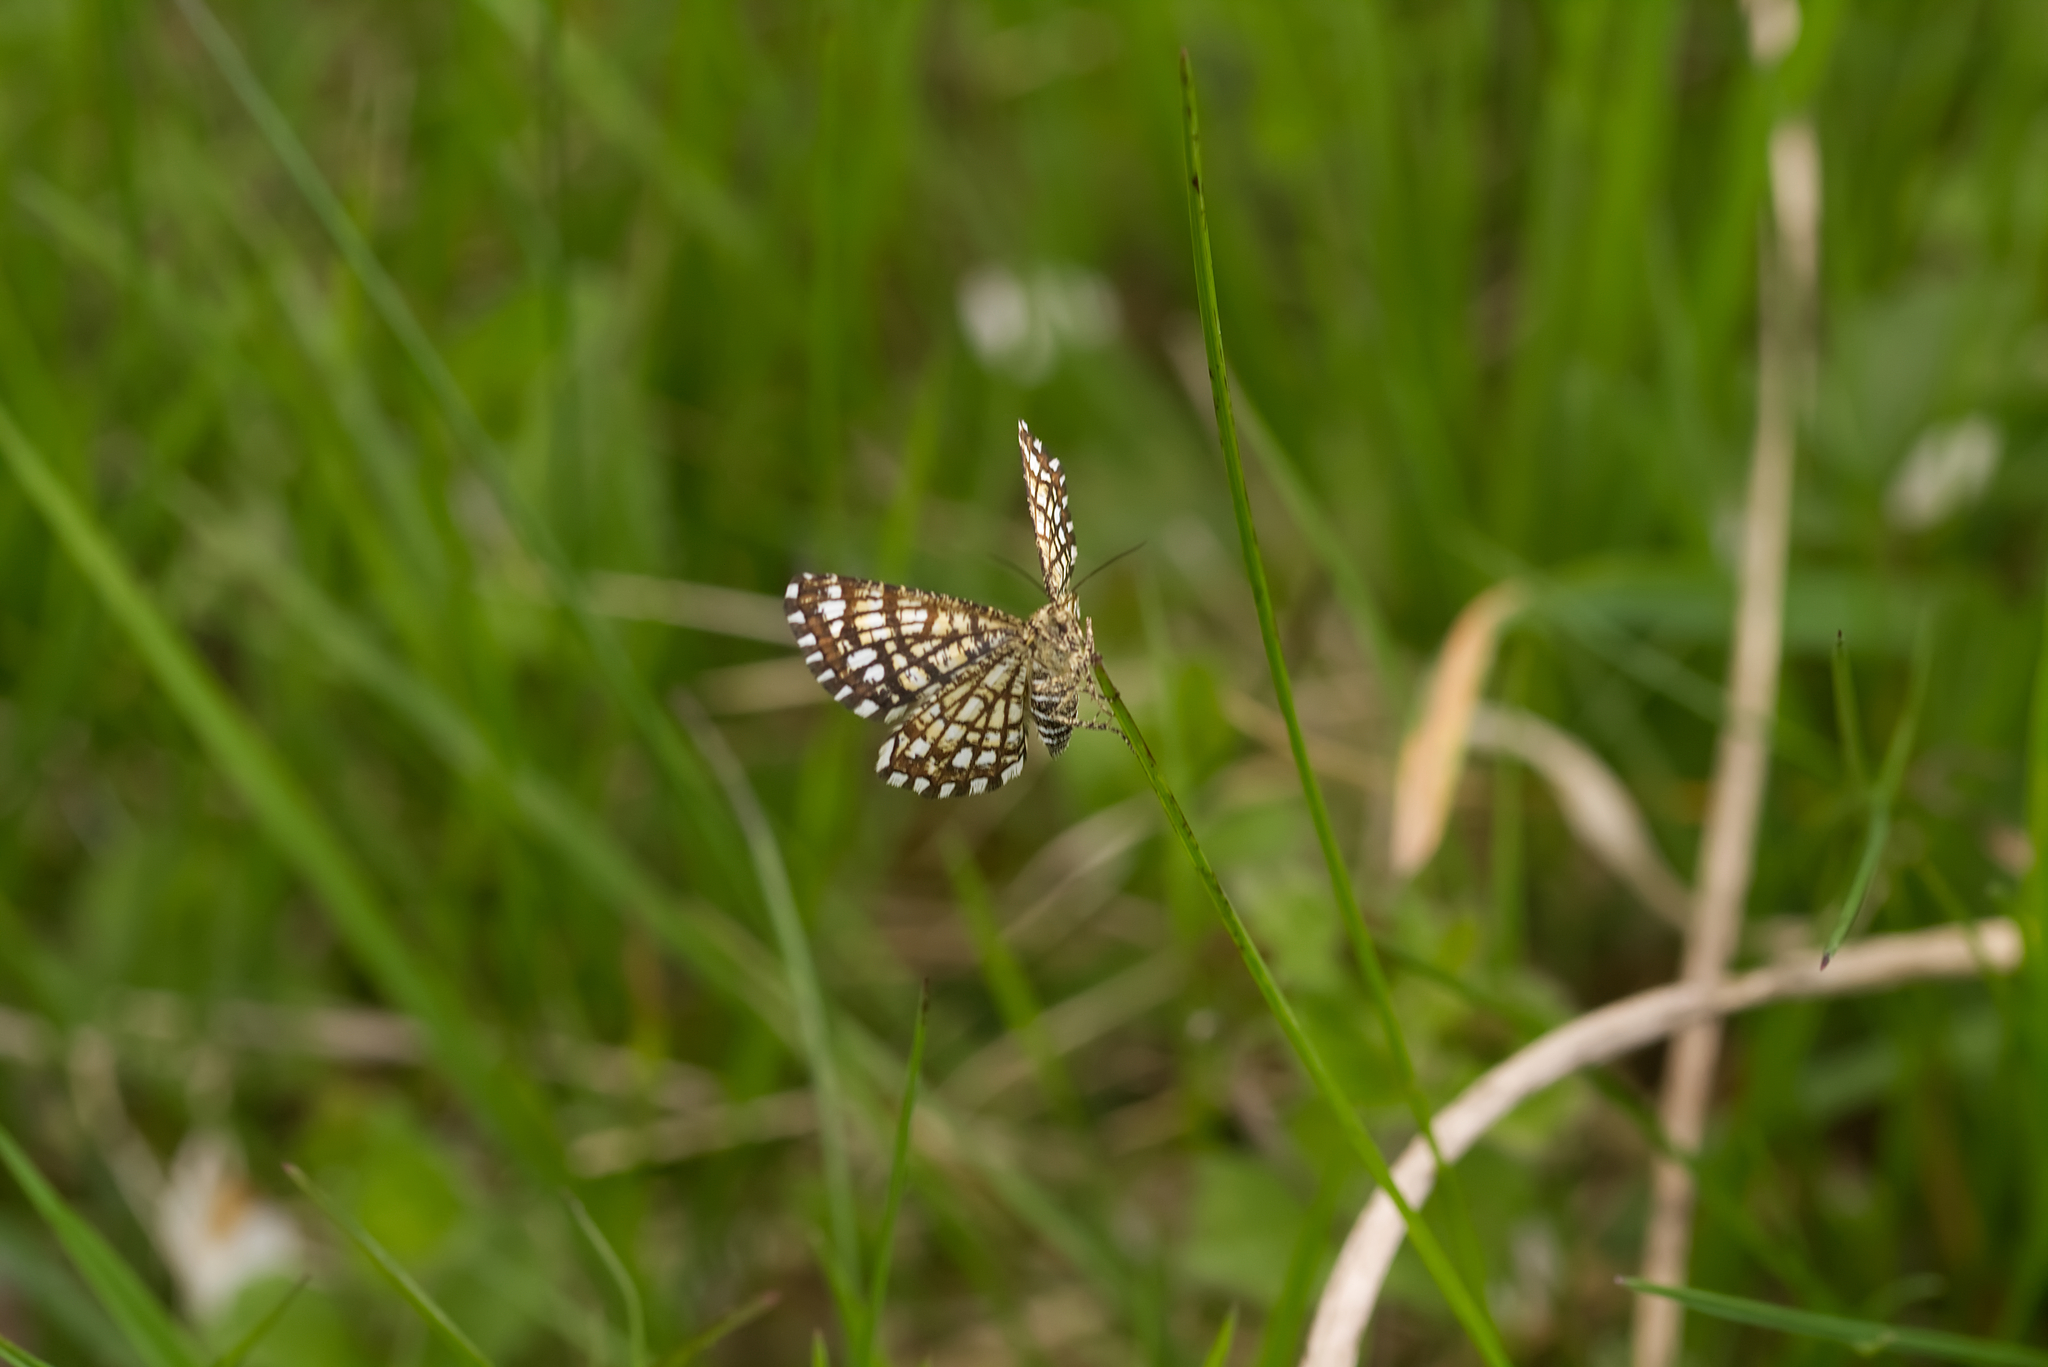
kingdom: Animalia
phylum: Arthropoda
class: Insecta
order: Lepidoptera
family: Geometridae
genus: Chiasmia
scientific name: Chiasmia clathrata
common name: Latticed heath
